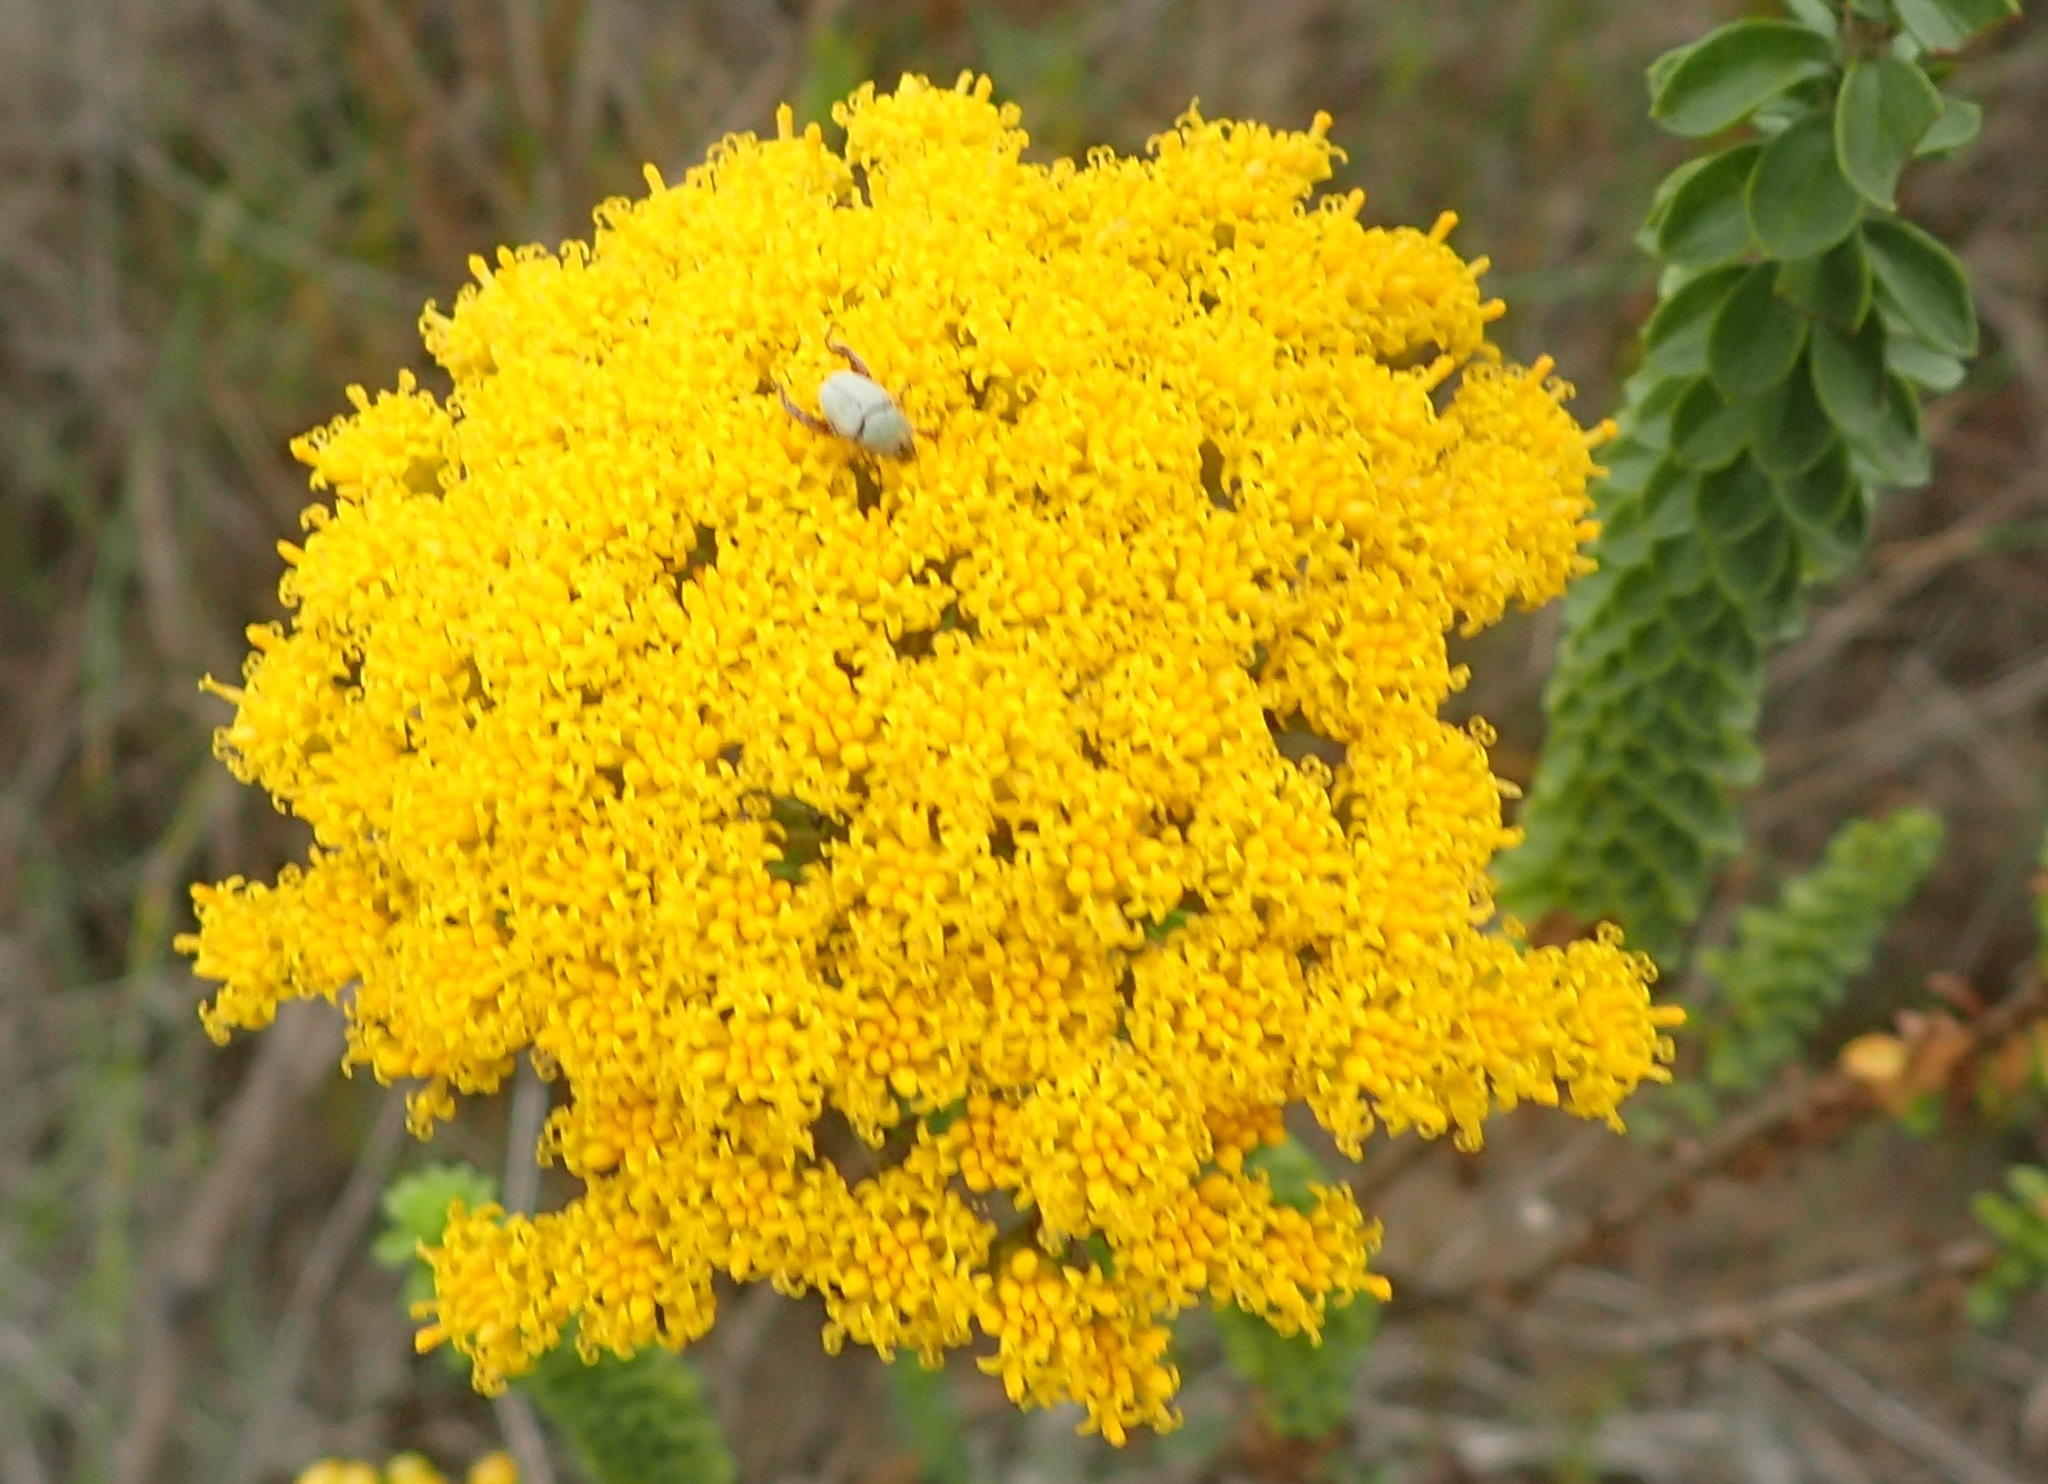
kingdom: Plantae
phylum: Tracheophyta
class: Magnoliopsida
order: Asterales
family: Asteraceae
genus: Athanasia
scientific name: Athanasia quinquedentata
